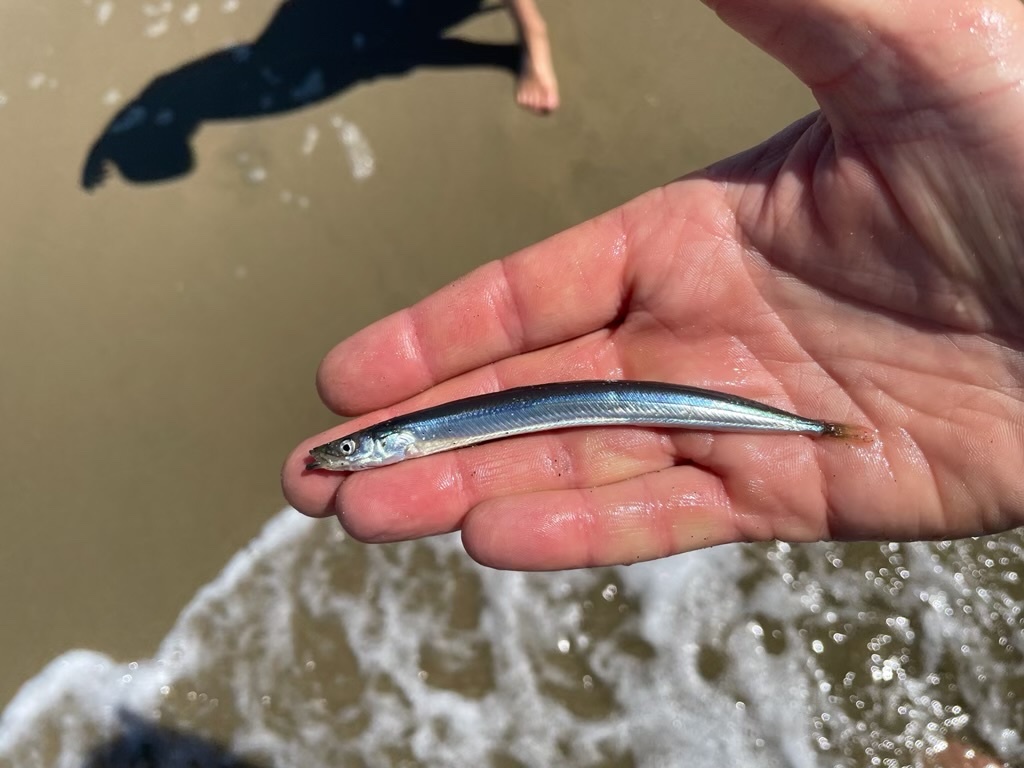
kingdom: Animalia
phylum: Chordata
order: Perciformes
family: Ammodytidae
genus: Ammodytes
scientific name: Ammodytes personatus
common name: Japanese sand lance
